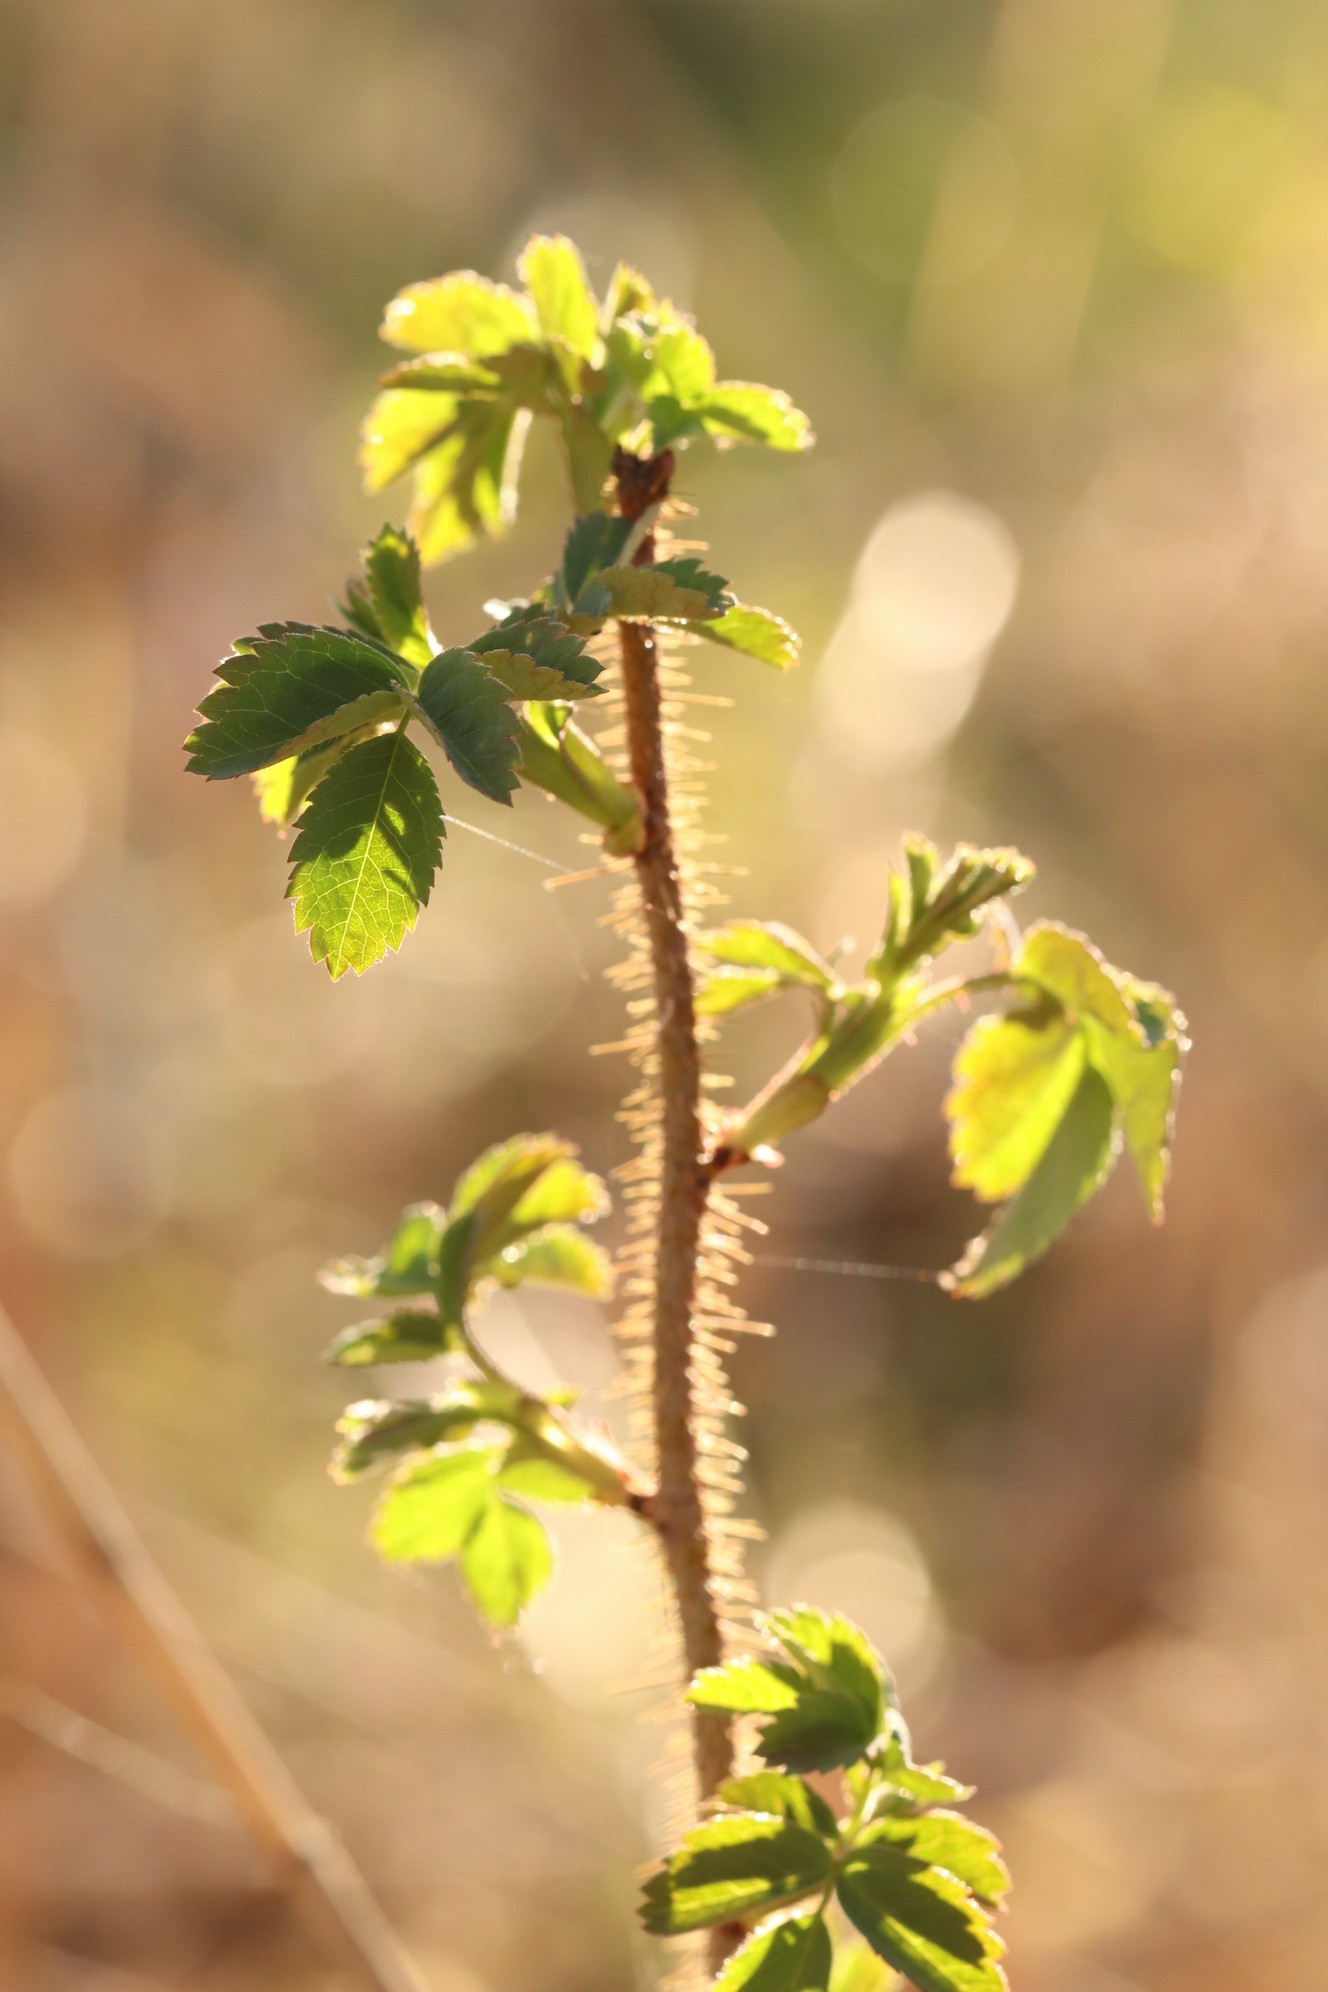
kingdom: Plantae
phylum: Tracheophyta
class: Magnoliopsida
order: Rosales
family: Rosaceae
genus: Rosa
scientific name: Rosa acicularis
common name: Prickly rose
